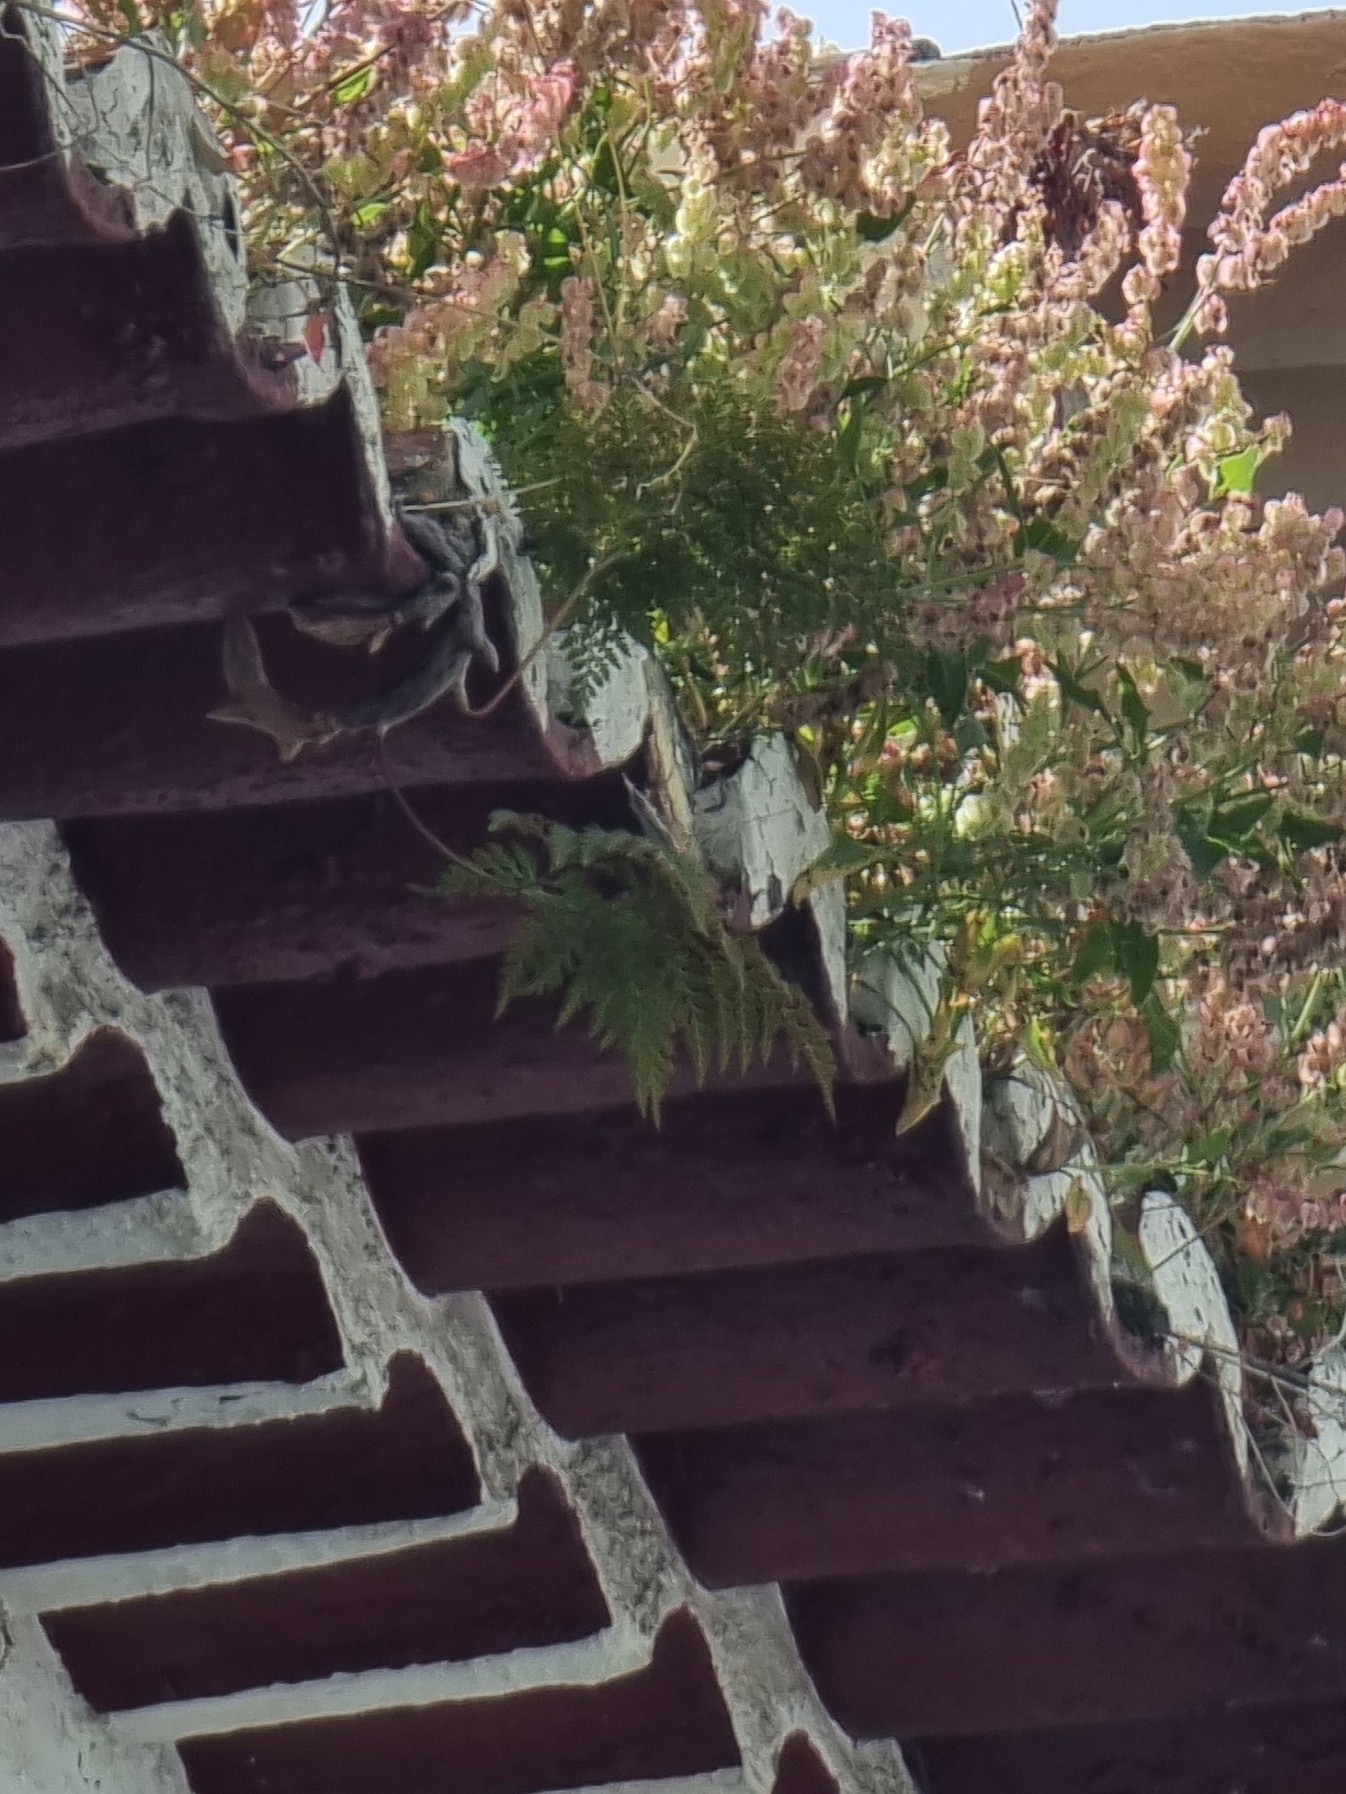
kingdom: Plantae
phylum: Tracheophyta
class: Polypodiopsida
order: Polypodiales
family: Davalliaceae
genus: Davallia
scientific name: Davallia canariensis
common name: Hare's-foot fern
